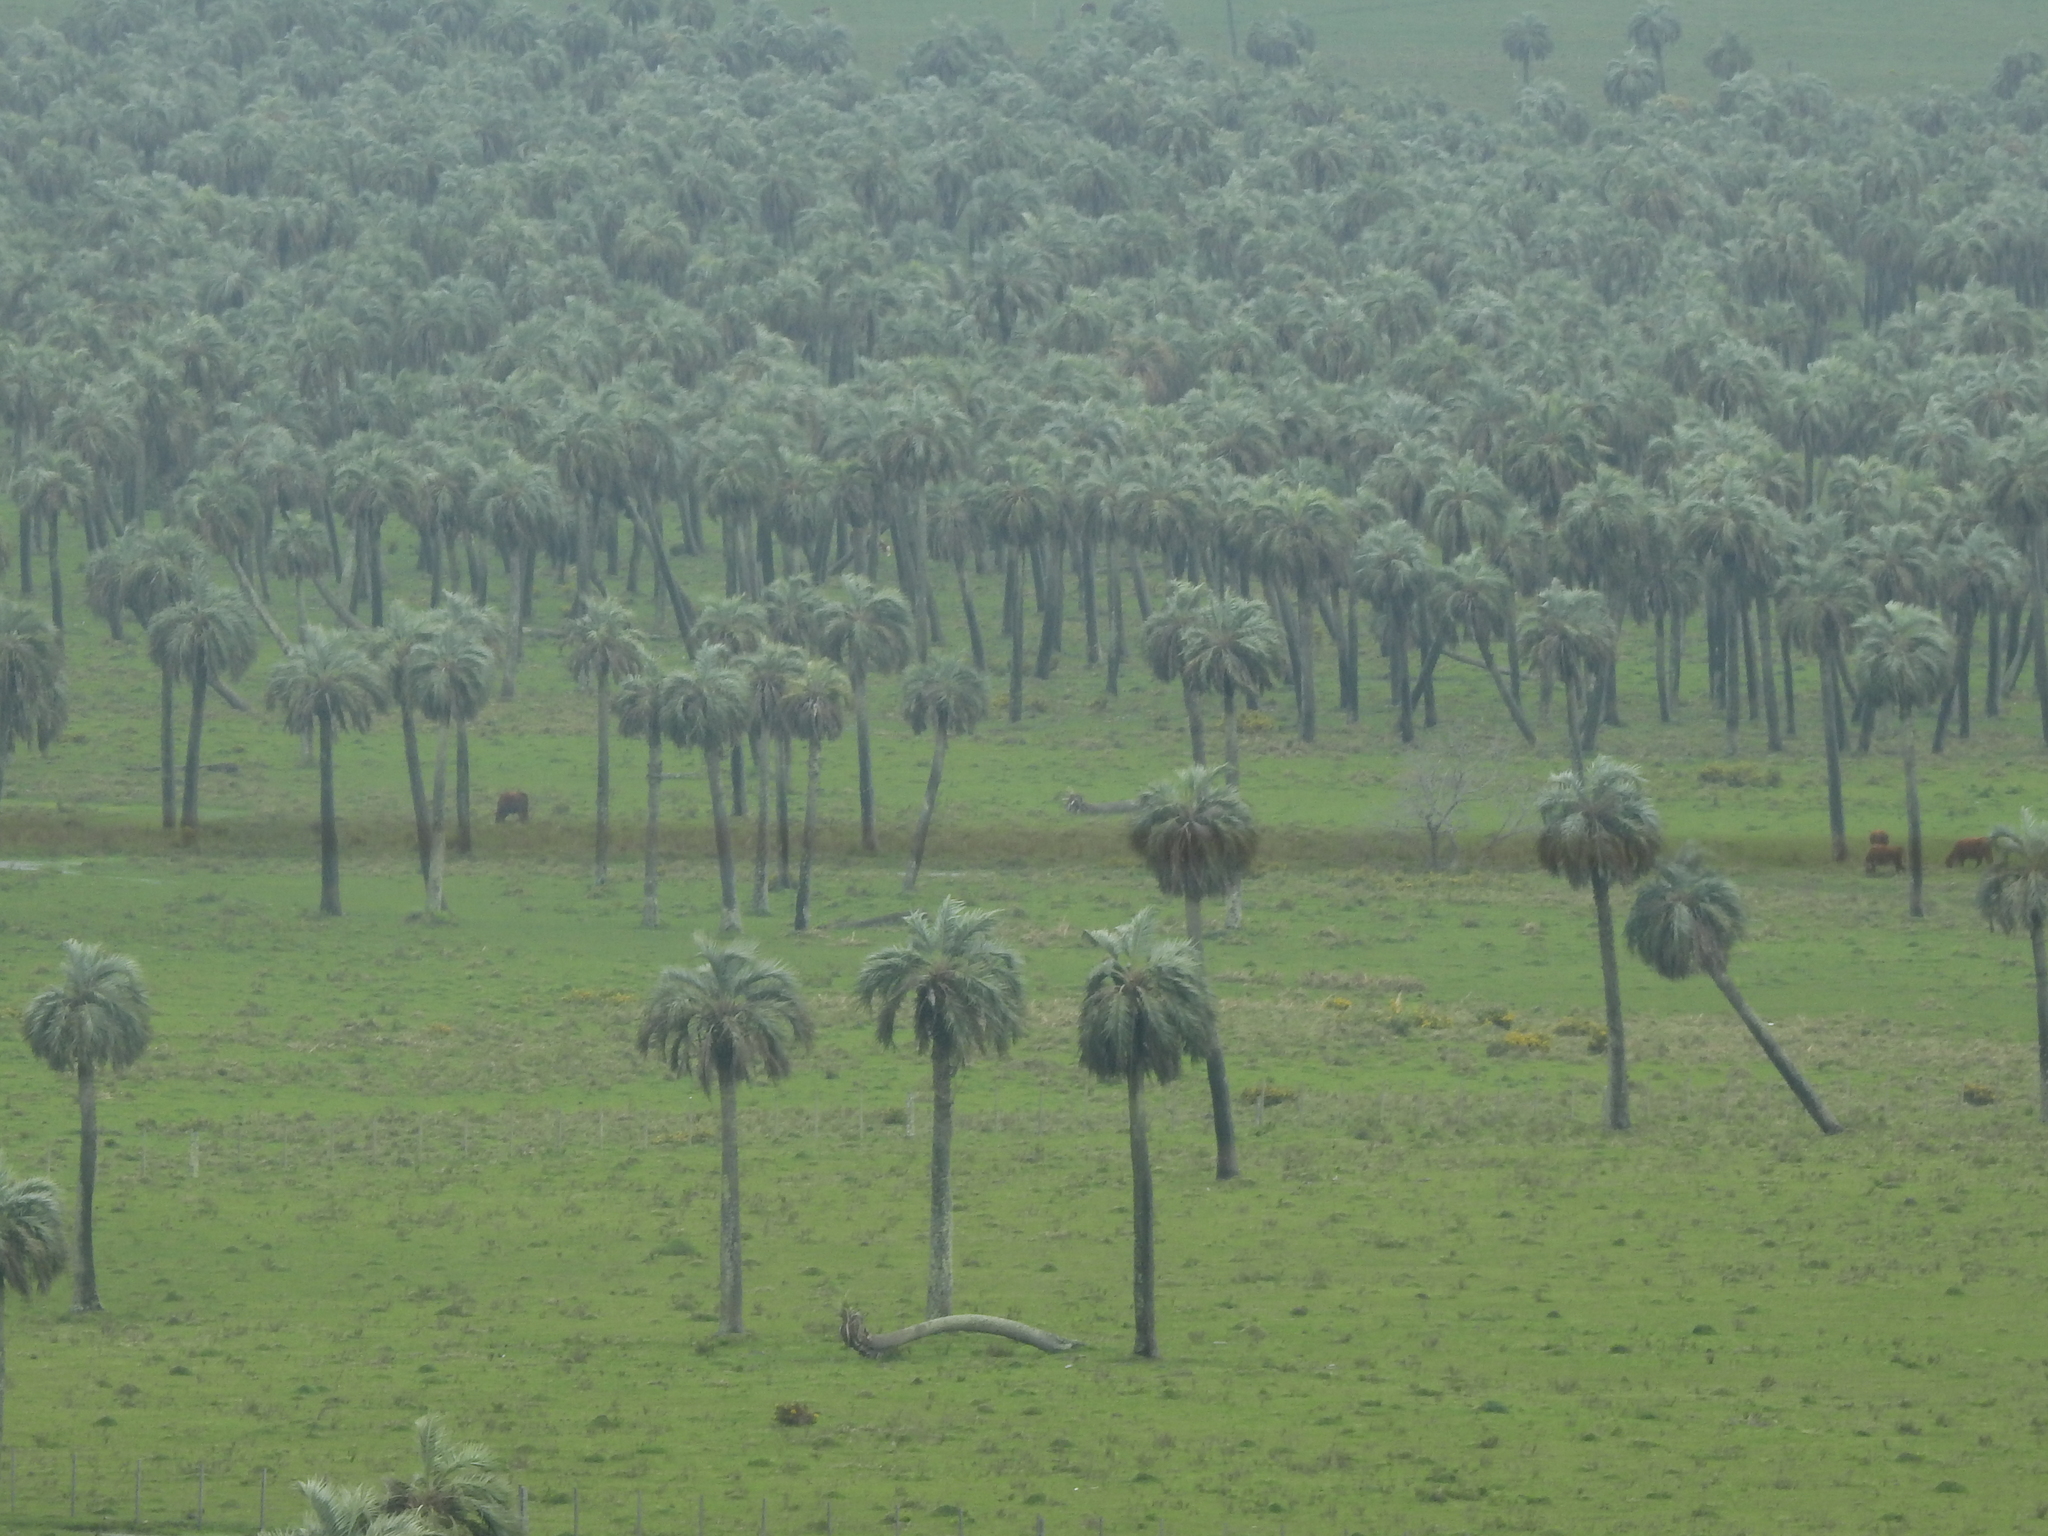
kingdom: Plantae
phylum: Tracheophyta
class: Liliopsida
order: Arecales
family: Arecaceae
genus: Butia
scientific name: Butia odorata
